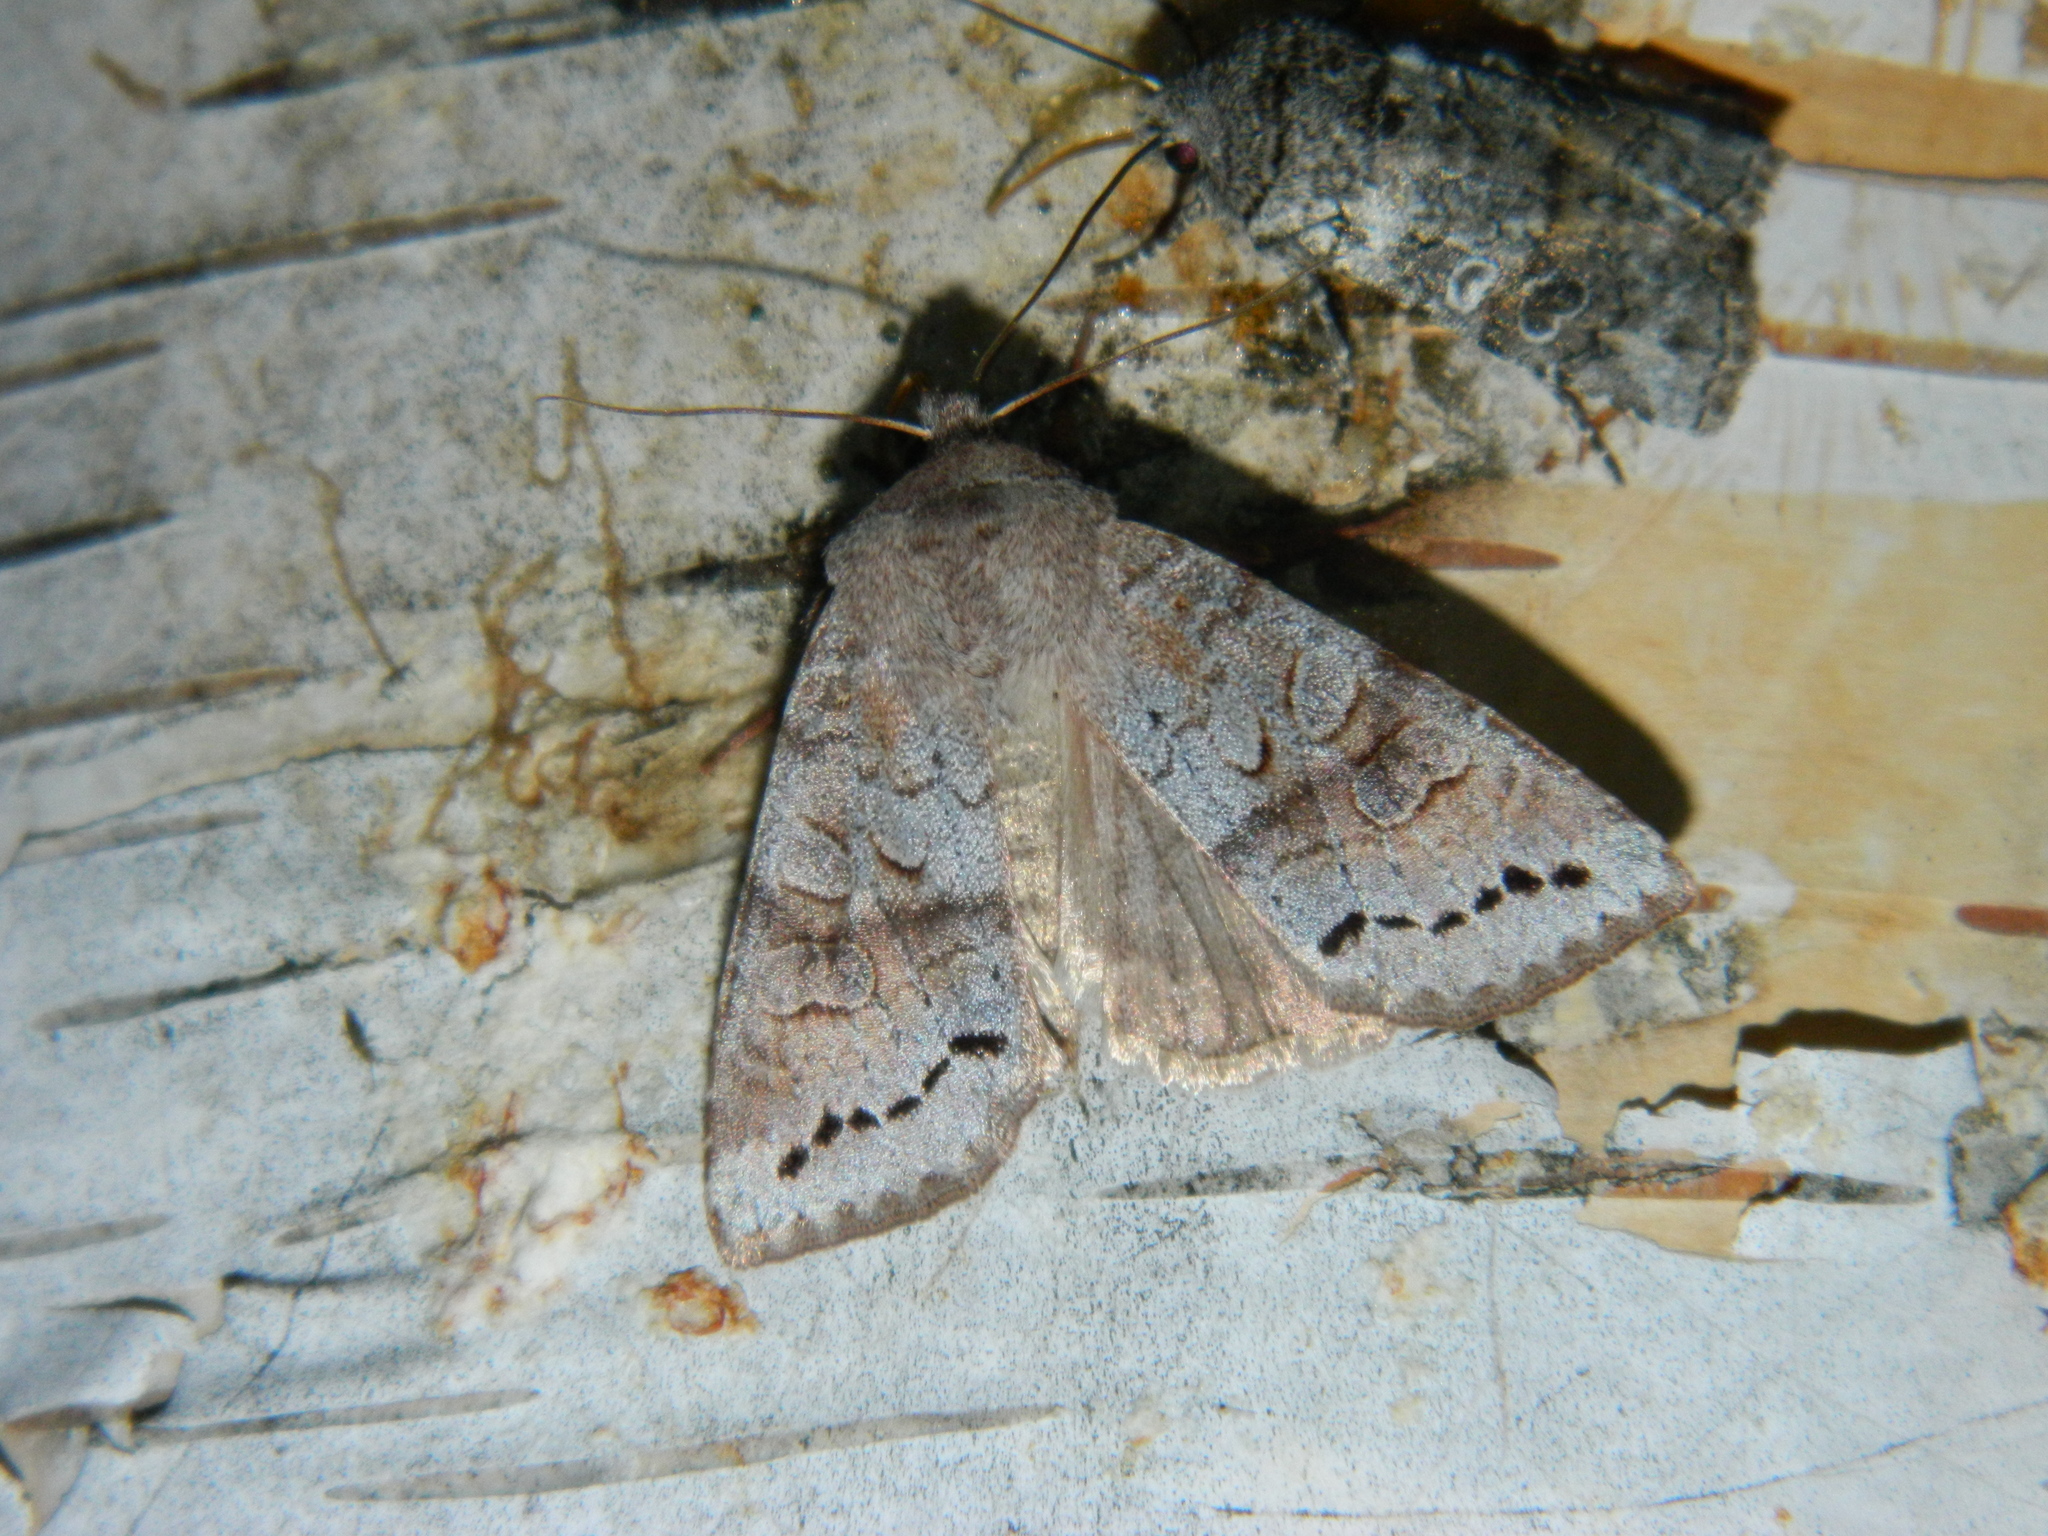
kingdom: Animalia
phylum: Arthropoda
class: Insecta
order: Lepidoptera
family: Noctuidae
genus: Orthosia
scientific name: Orthosia revicta
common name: Rusty whitesided caterpillar
